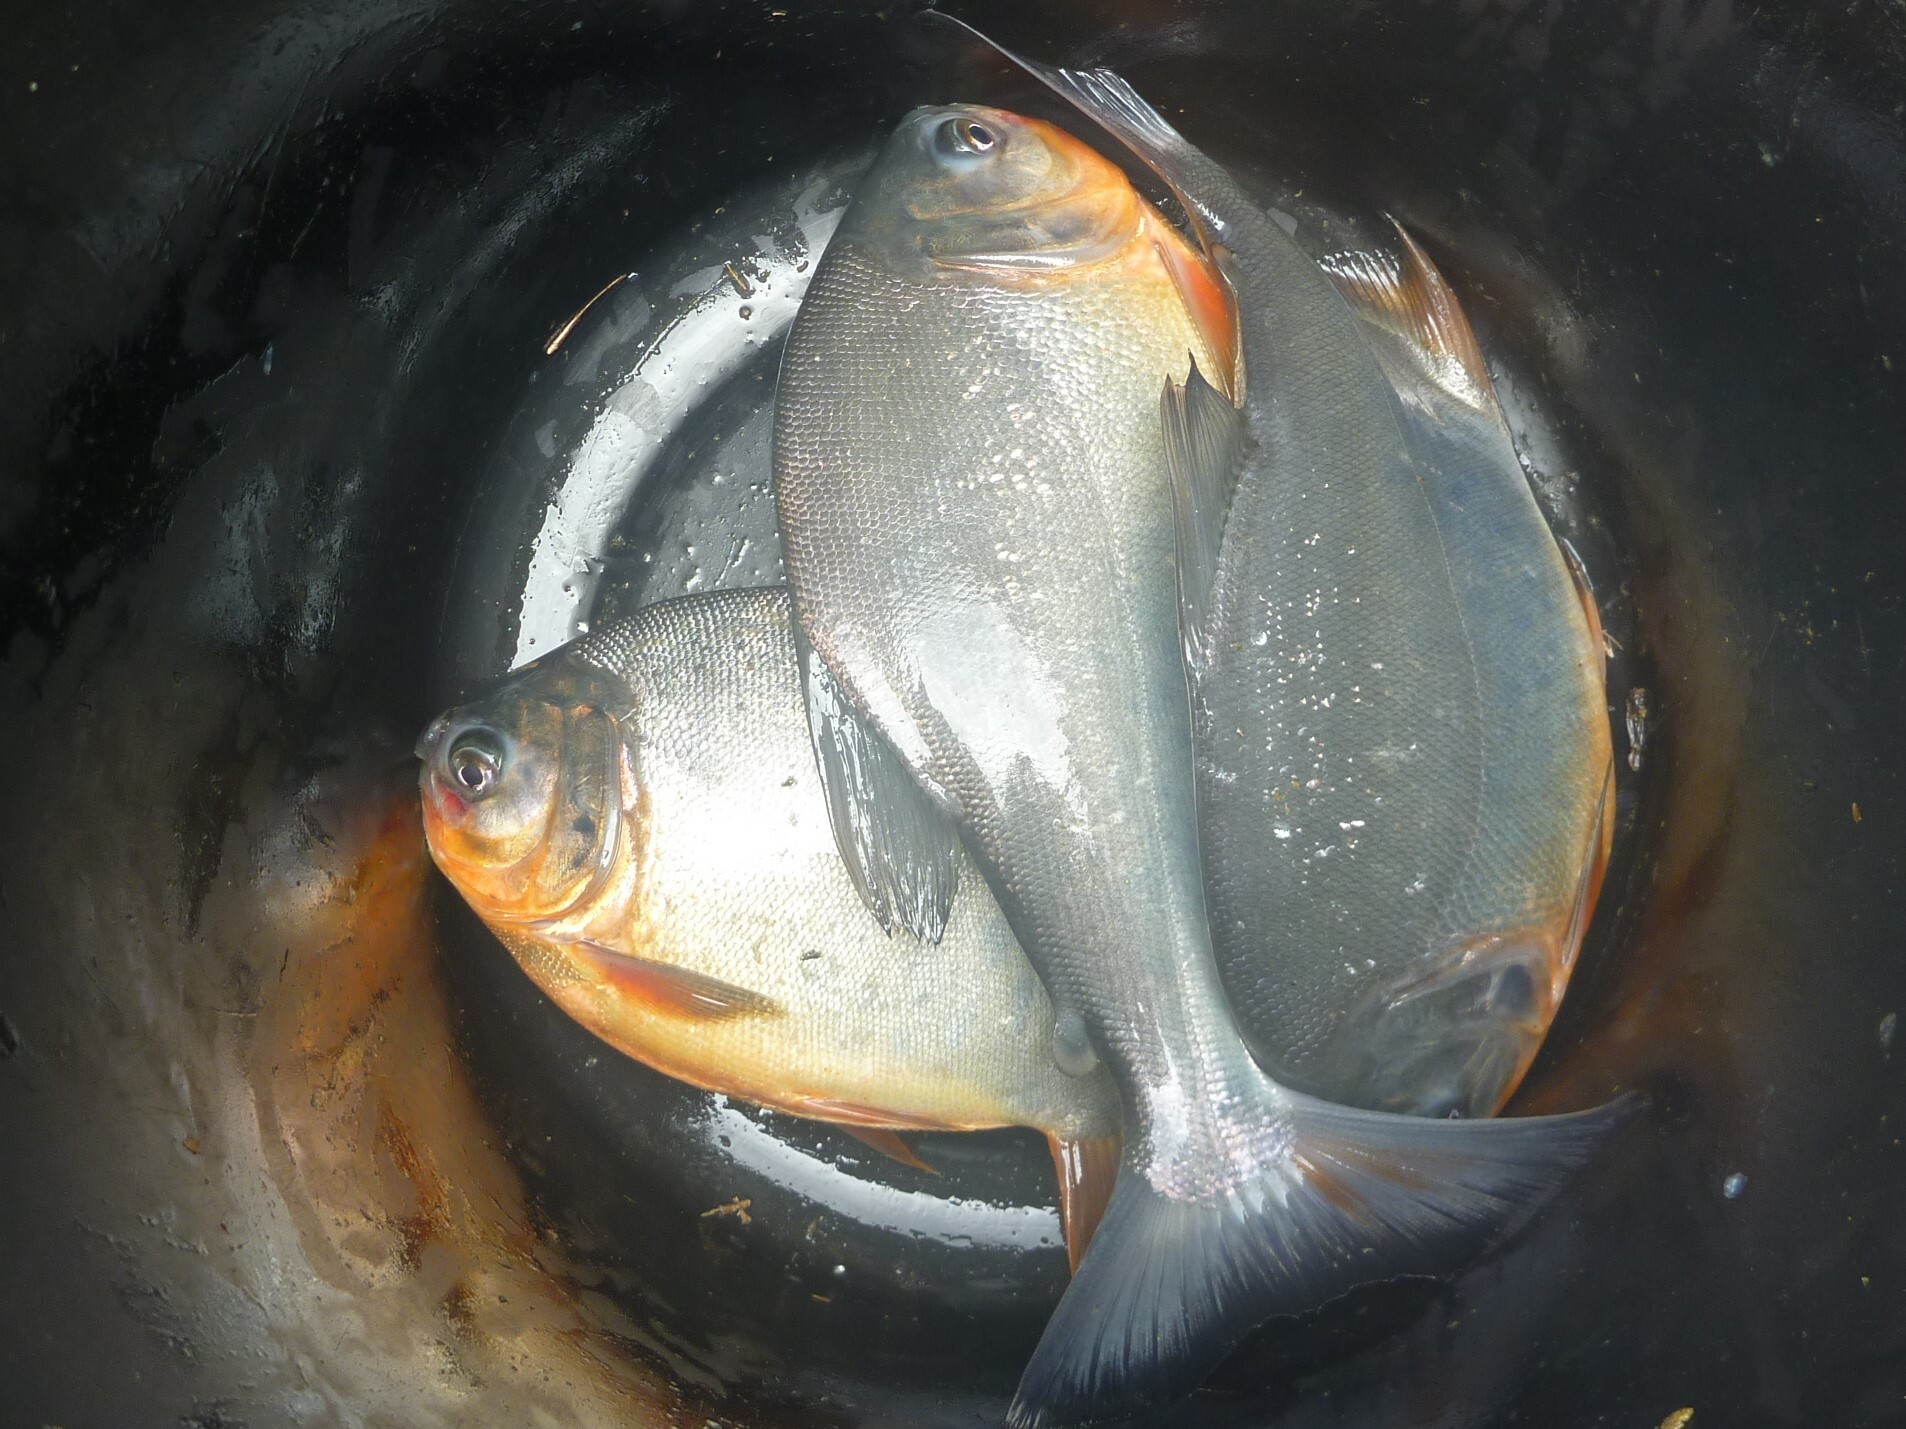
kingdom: Animalia
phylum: Chordata
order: Characiformes
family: Serrasalmidae
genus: Piaractus
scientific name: Piaractus brachypomus
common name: Cachama
